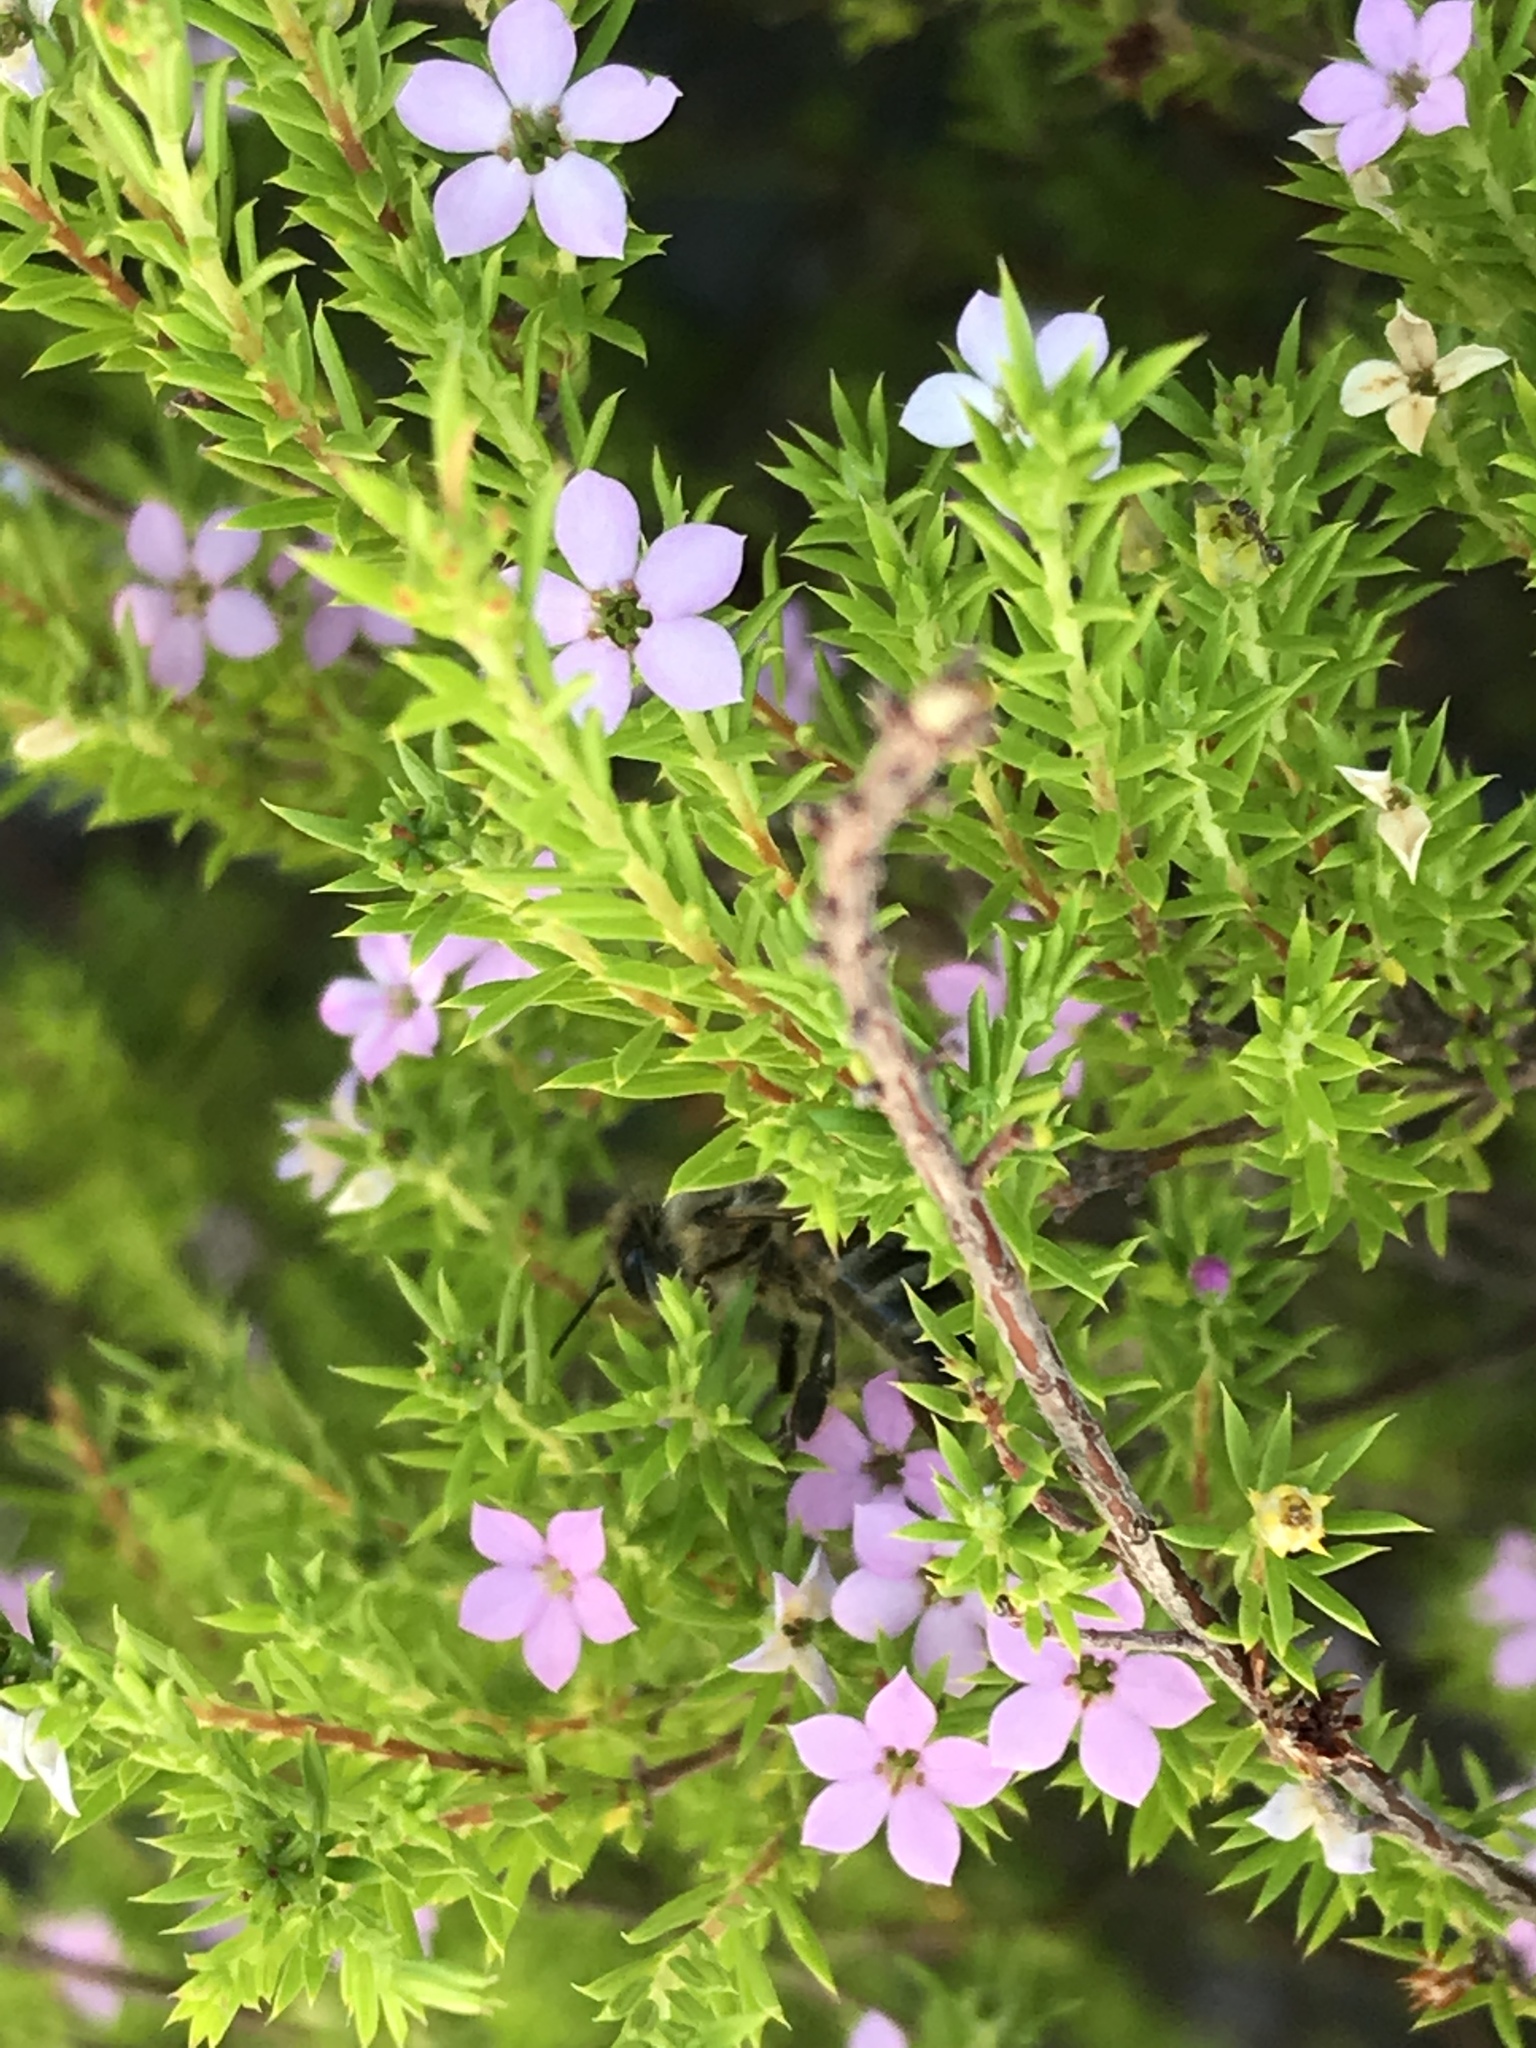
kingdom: Animalia
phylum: Arthropoda
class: Insecta
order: Hymenoptera
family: Apidae
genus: Apis
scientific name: Apis mellifera
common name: Honey bee
